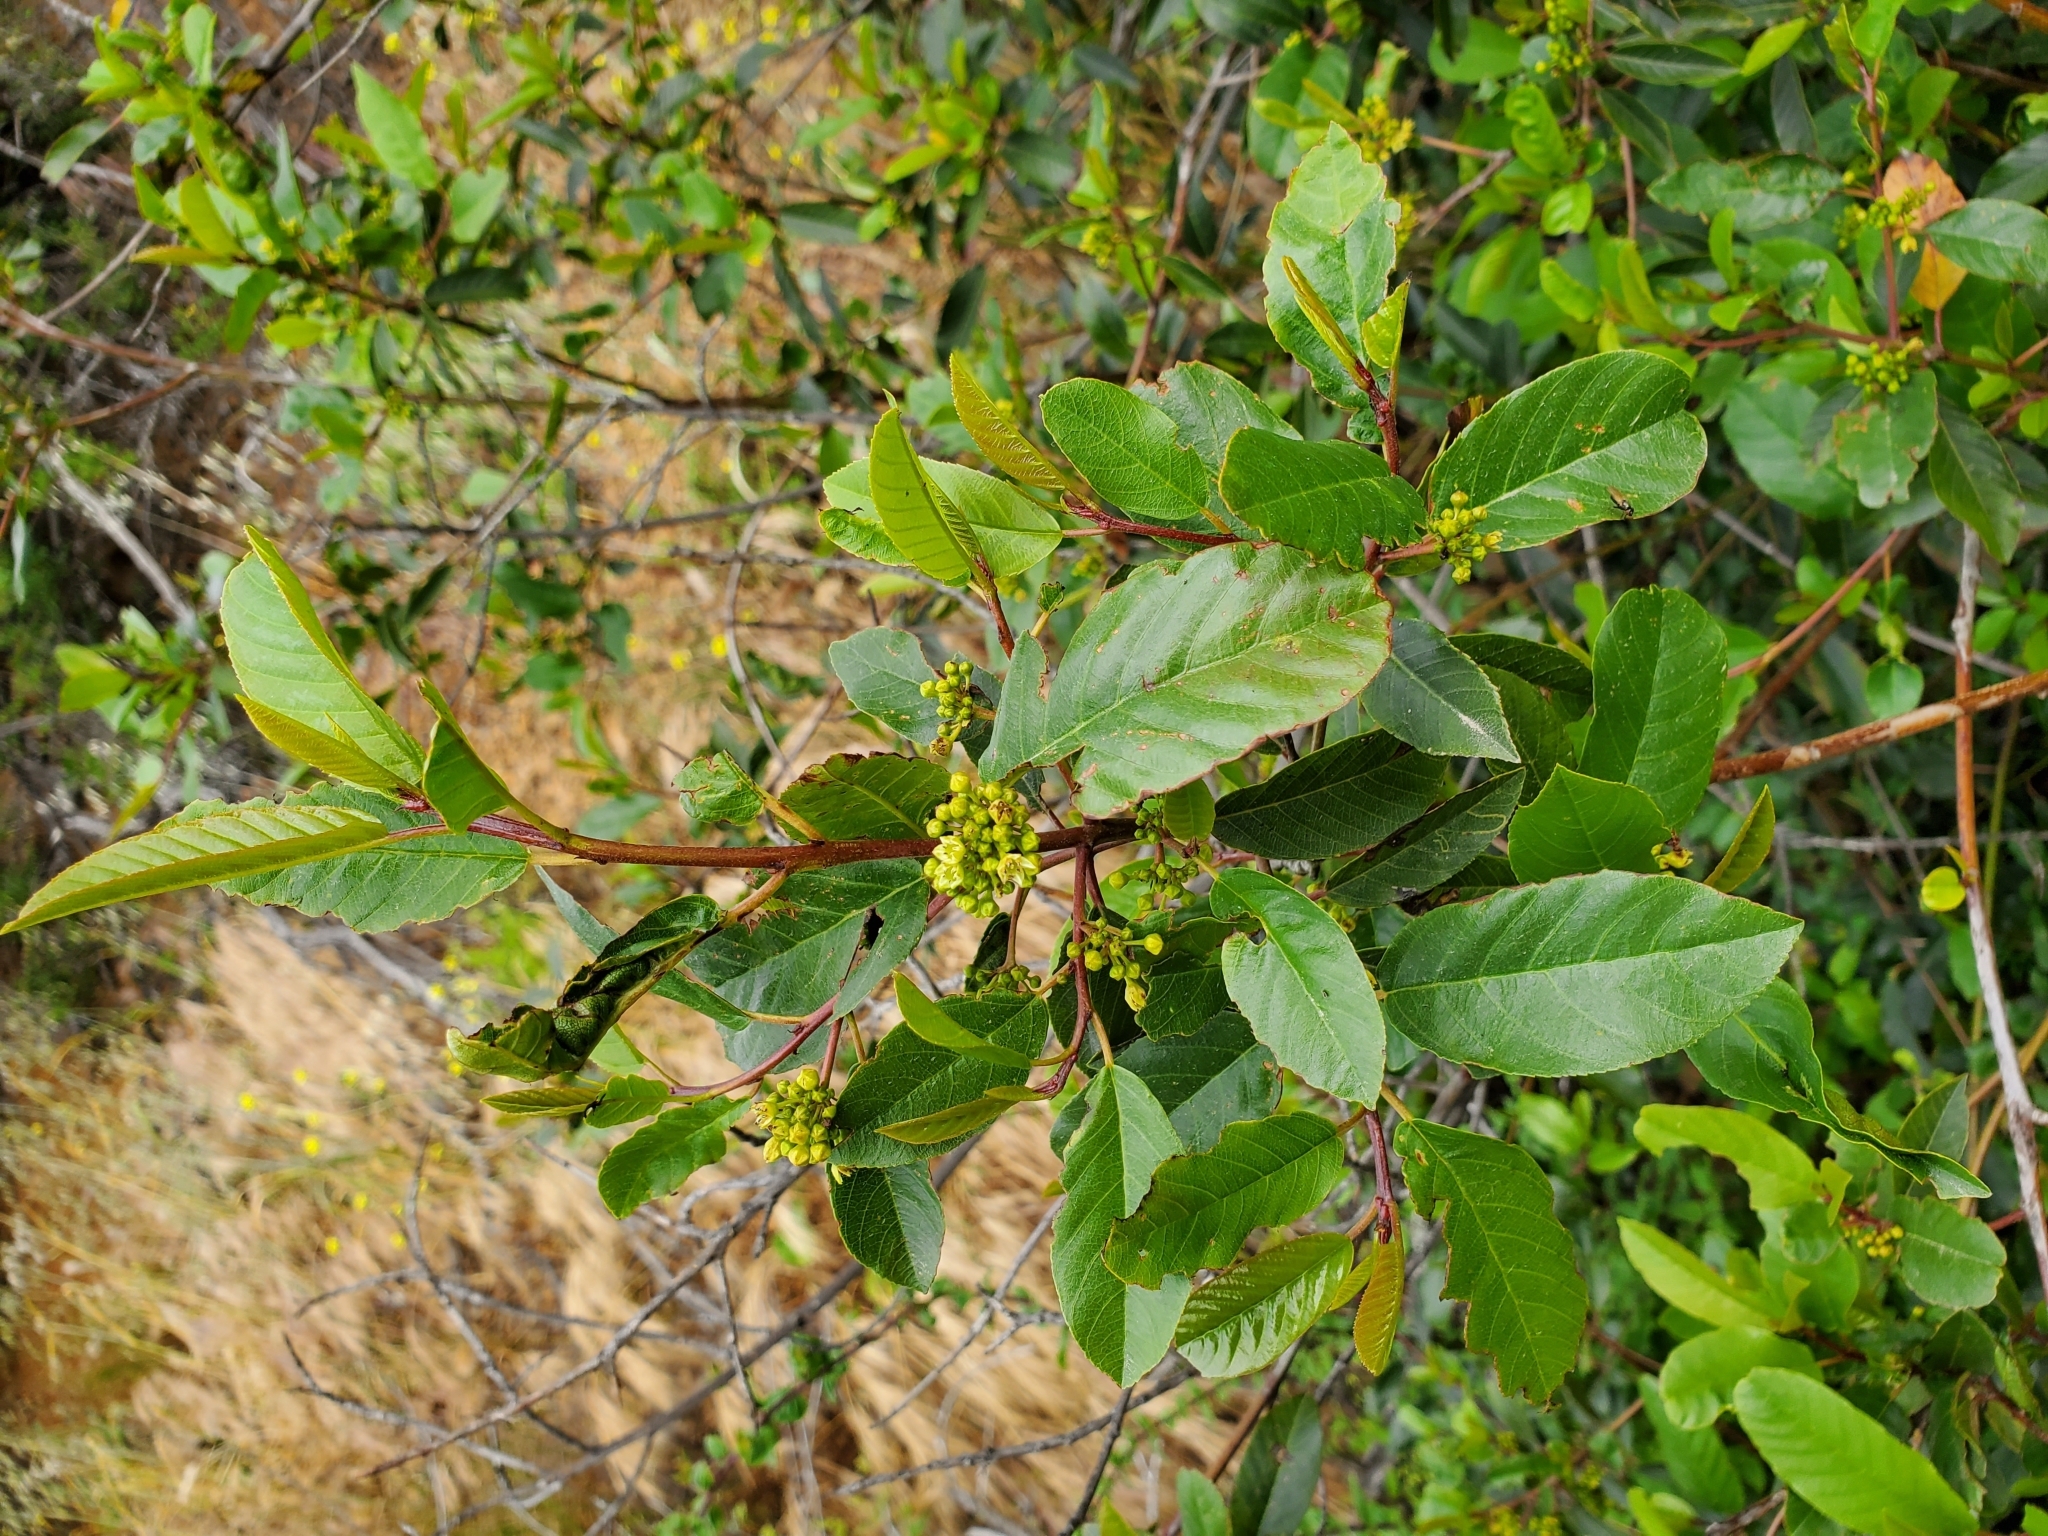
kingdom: Plantae
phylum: Tracheophyta
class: Magnoliopsida
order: Rosales
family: Rhamnaceae
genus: Frangula
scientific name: Frangula californica
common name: California buckthorn
